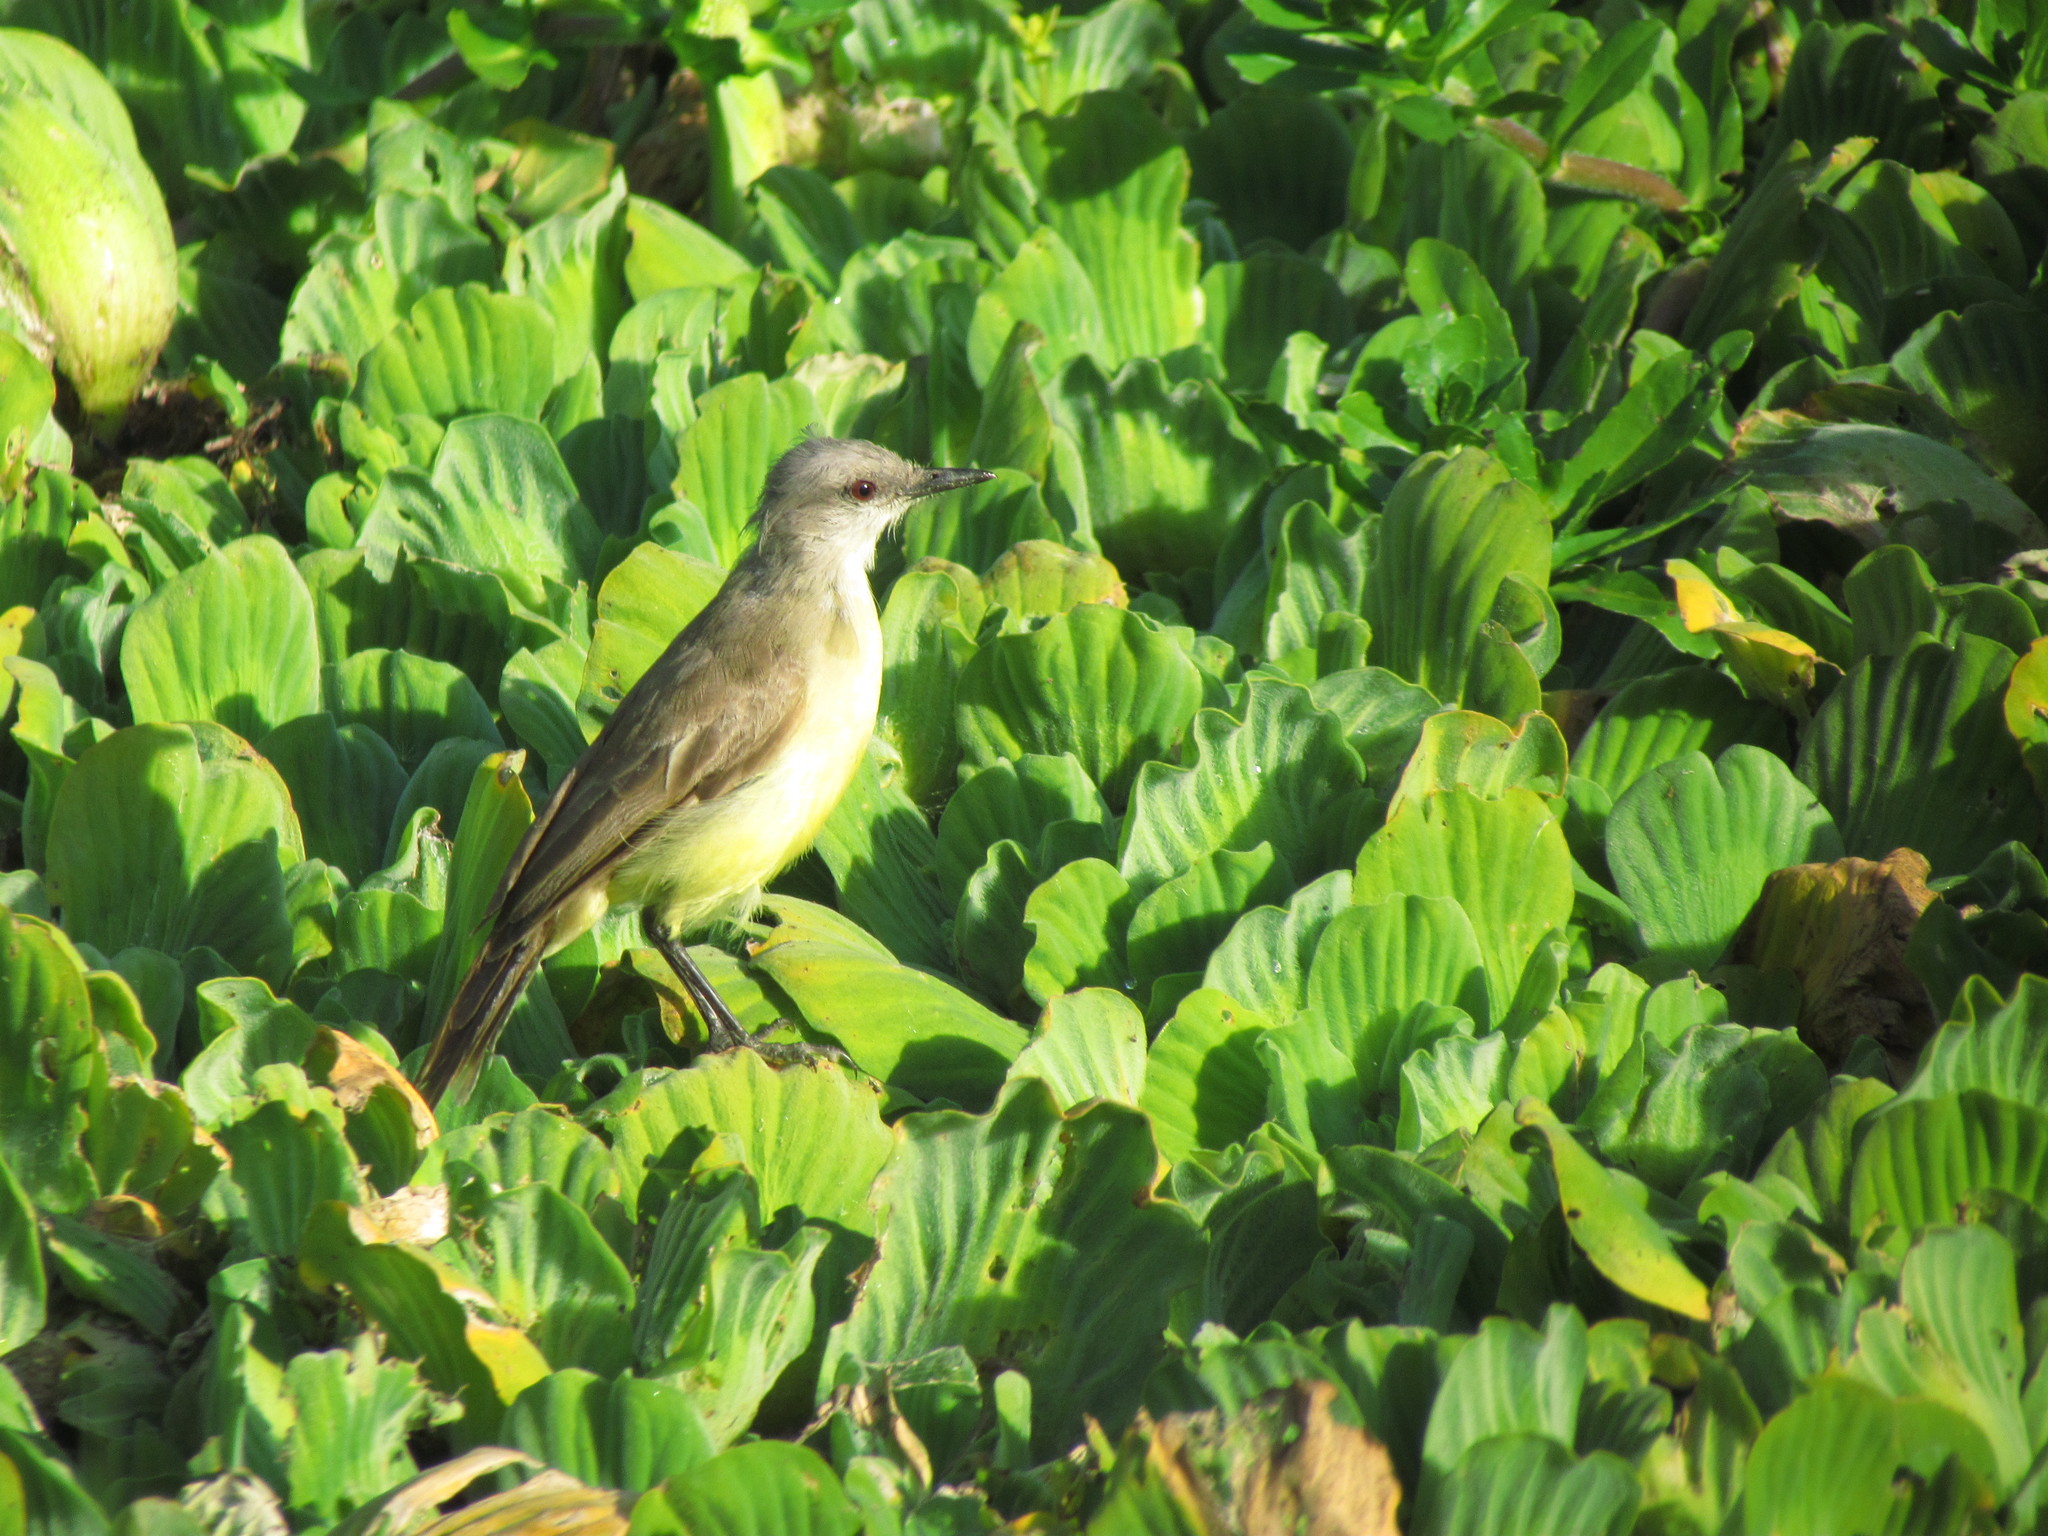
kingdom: Animalia
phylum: Chordata
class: Aves
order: Passeriformes
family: Tyrannidae
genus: Machetornis
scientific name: Machetornis rixosa
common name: Cattle tyrant
